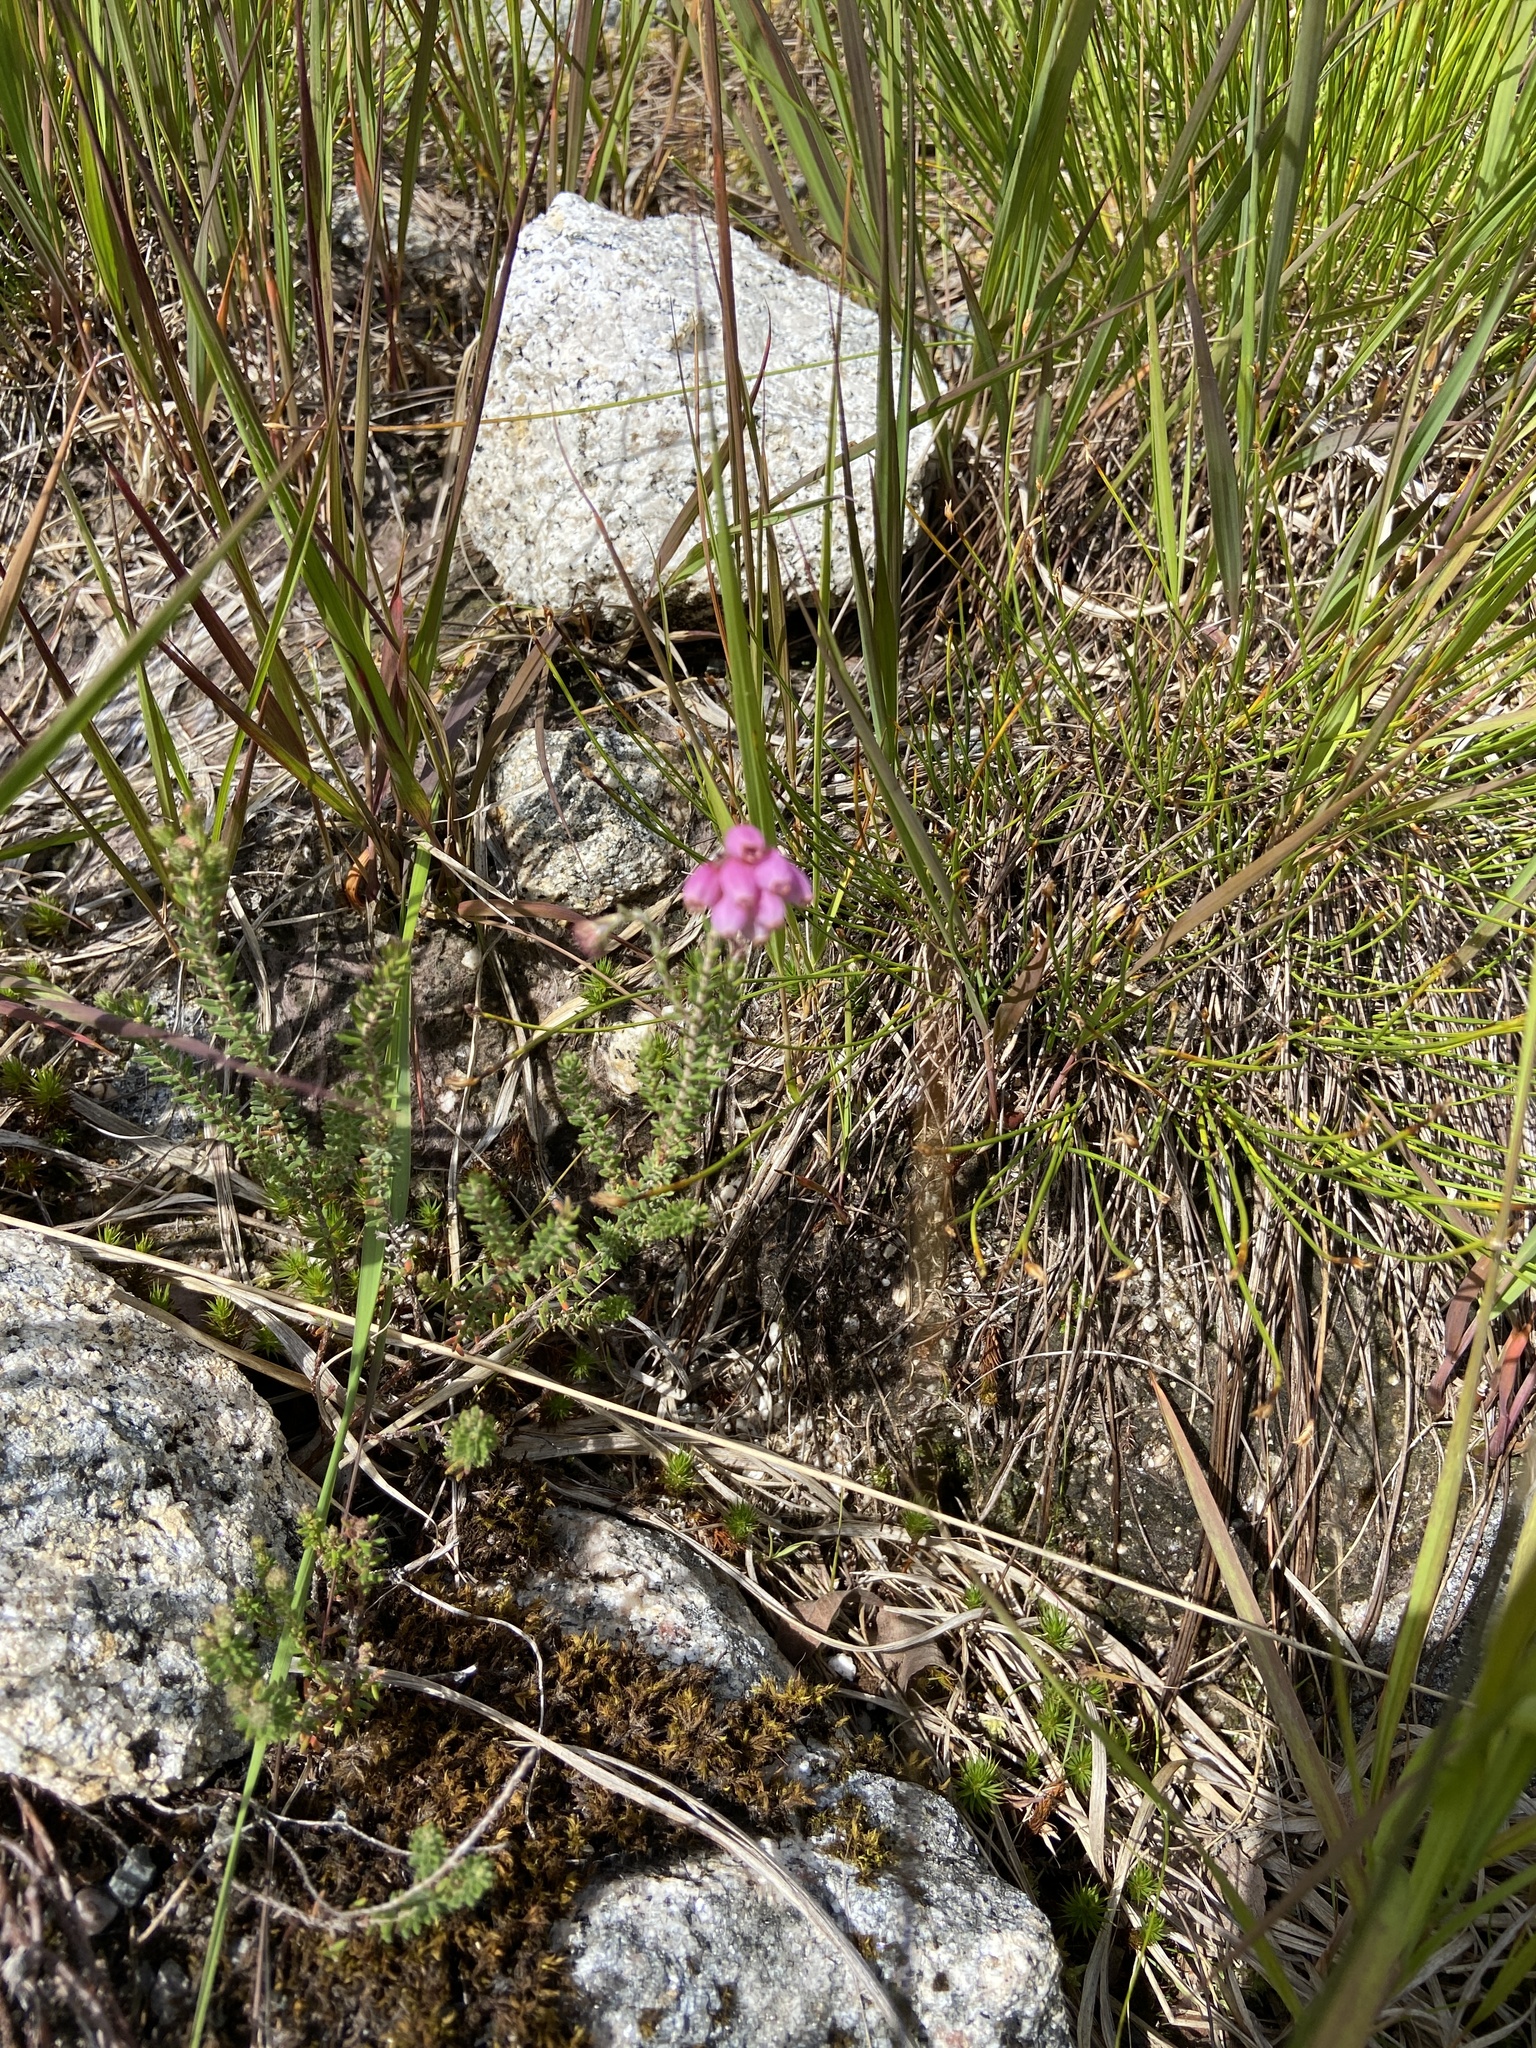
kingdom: Plantae
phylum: Tracheophyta
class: Magnoliopsida
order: Ericales
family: Ericaceae
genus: Erica
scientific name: Erica tetralix
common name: Cross-leaved heath
